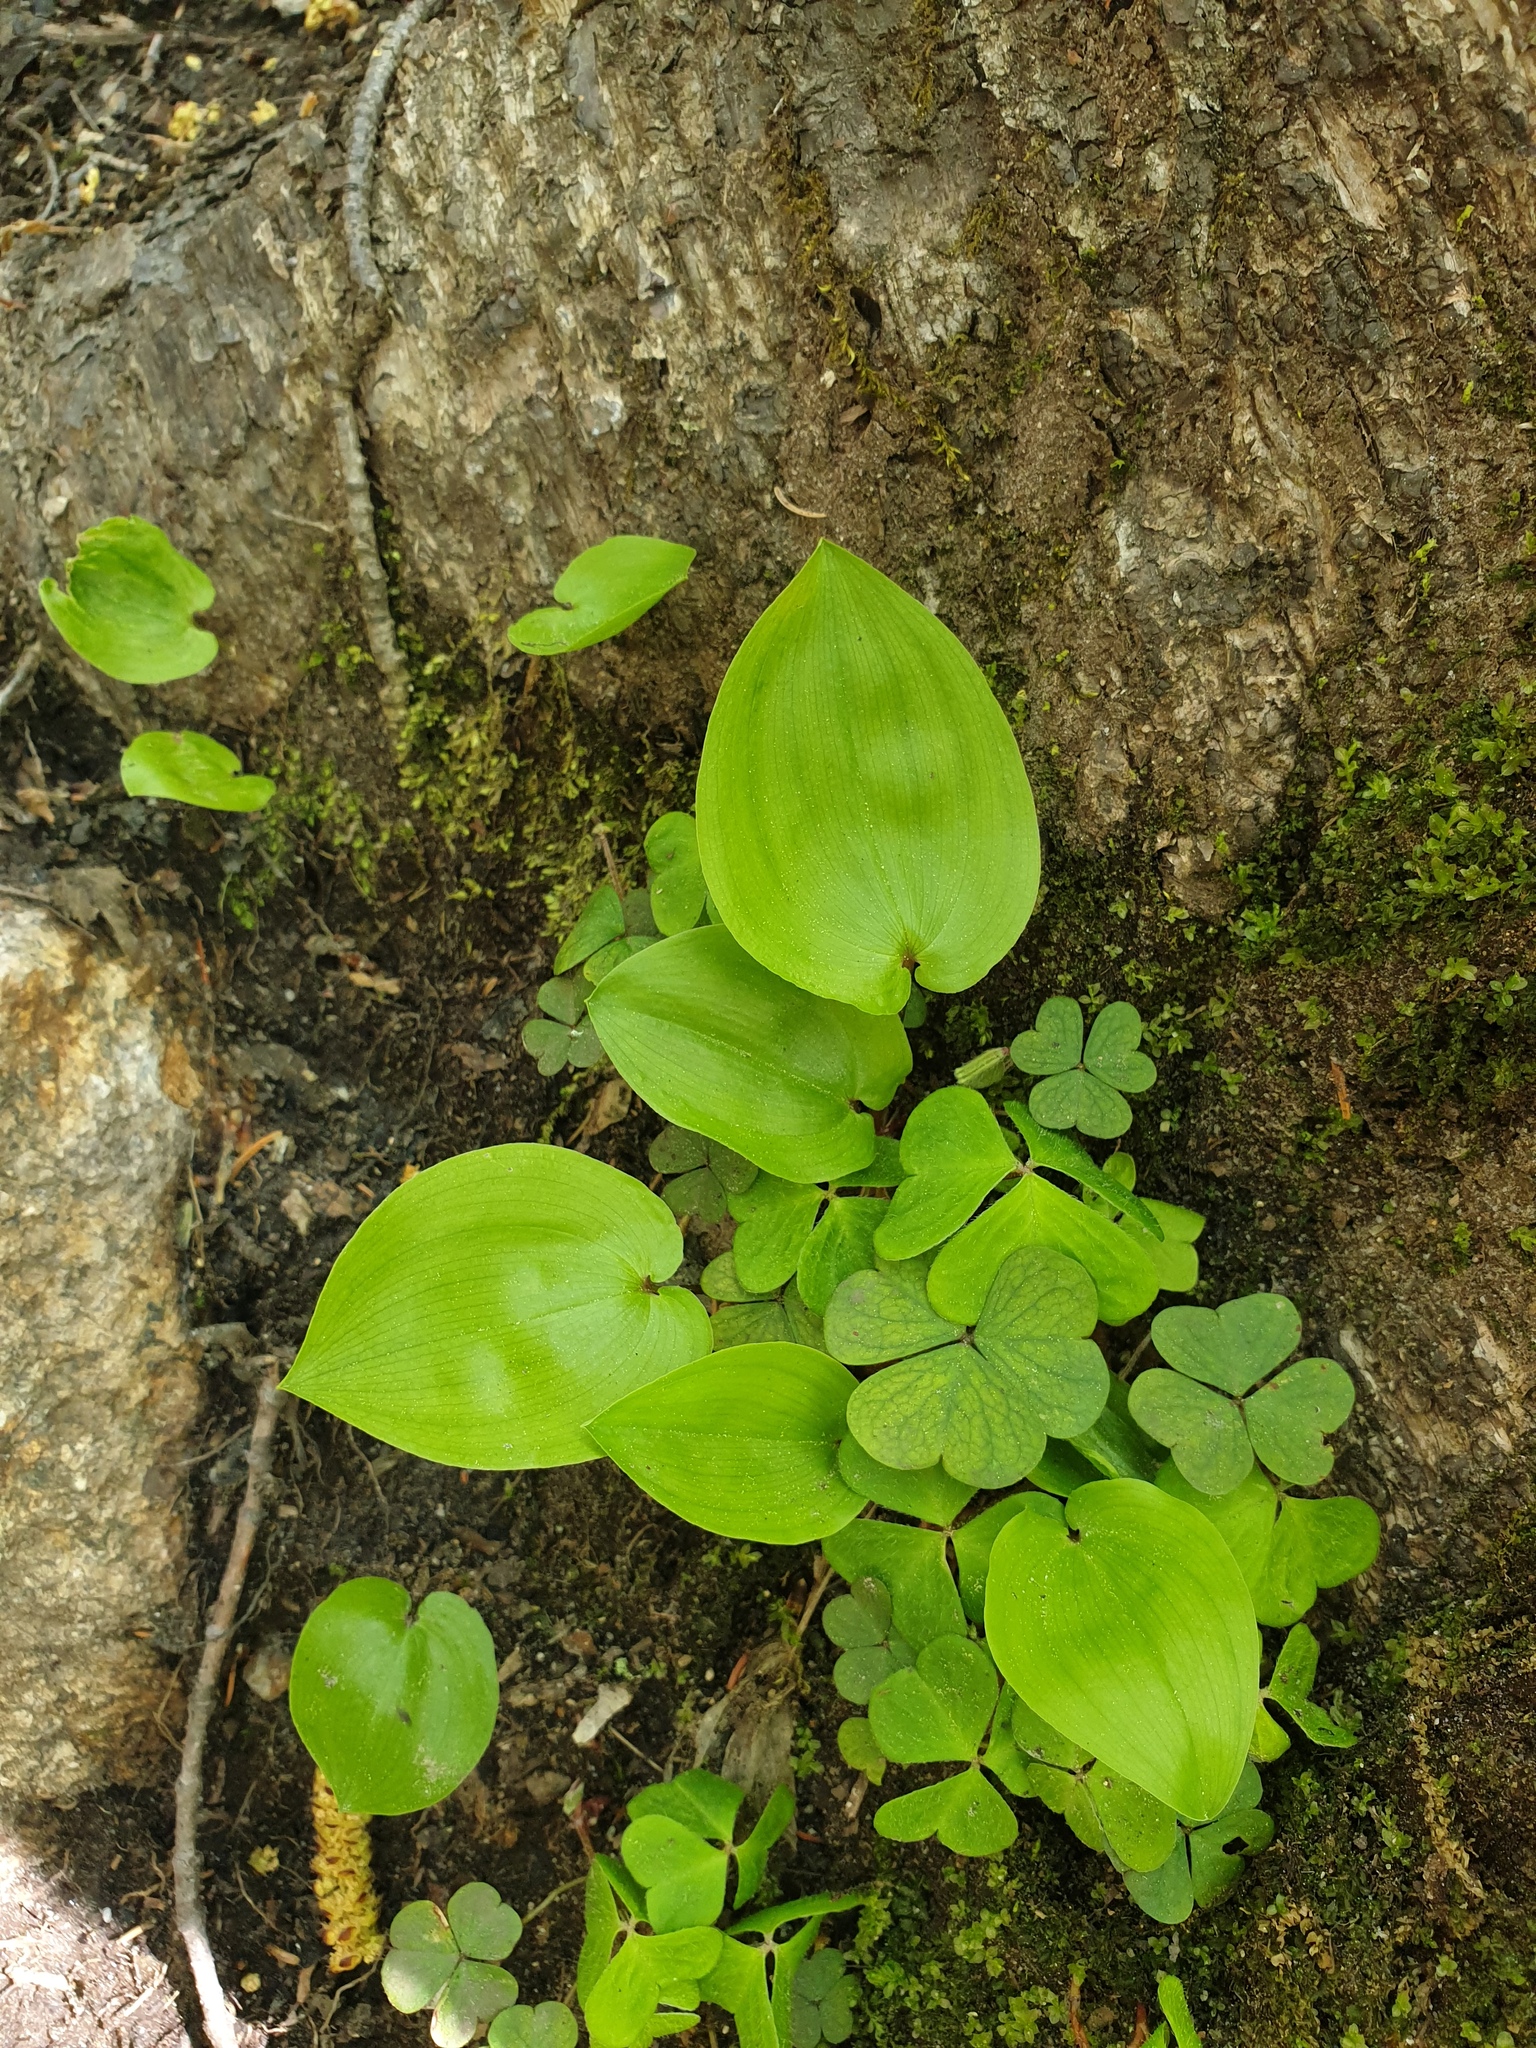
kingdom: Plantae
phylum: Tracheophyta
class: Magnoliopsida
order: Oxalidales
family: Oxalidaceae
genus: Oxalis
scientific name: Oxalis montana
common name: American wood-sorrel
